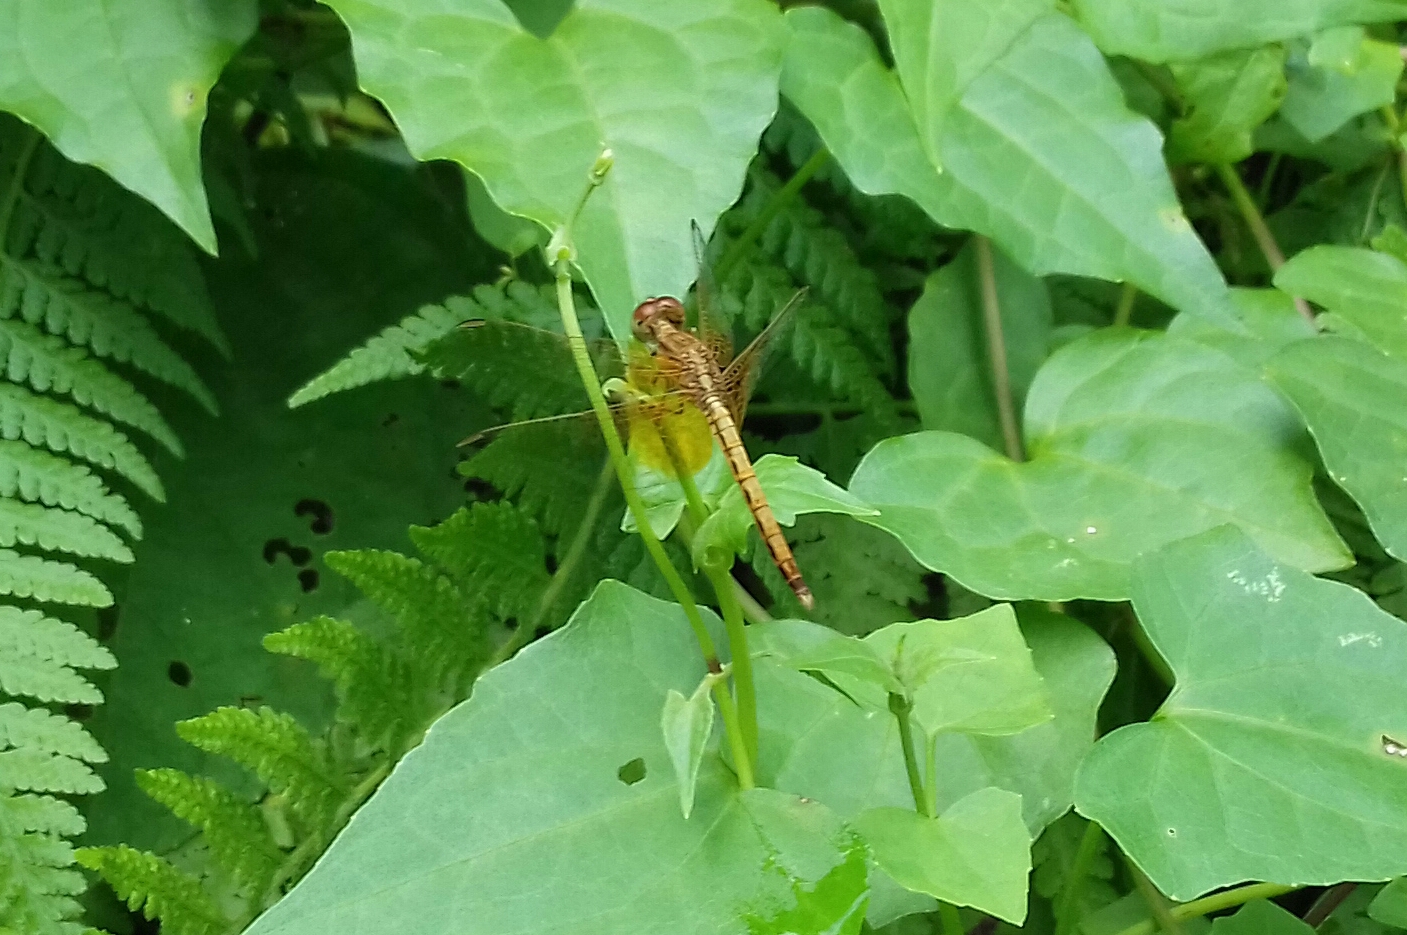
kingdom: Animalia
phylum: Arthropoda
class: Insecta
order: Odonata
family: Libellulidae
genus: Neurothemis
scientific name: Neurothemis intermedia
